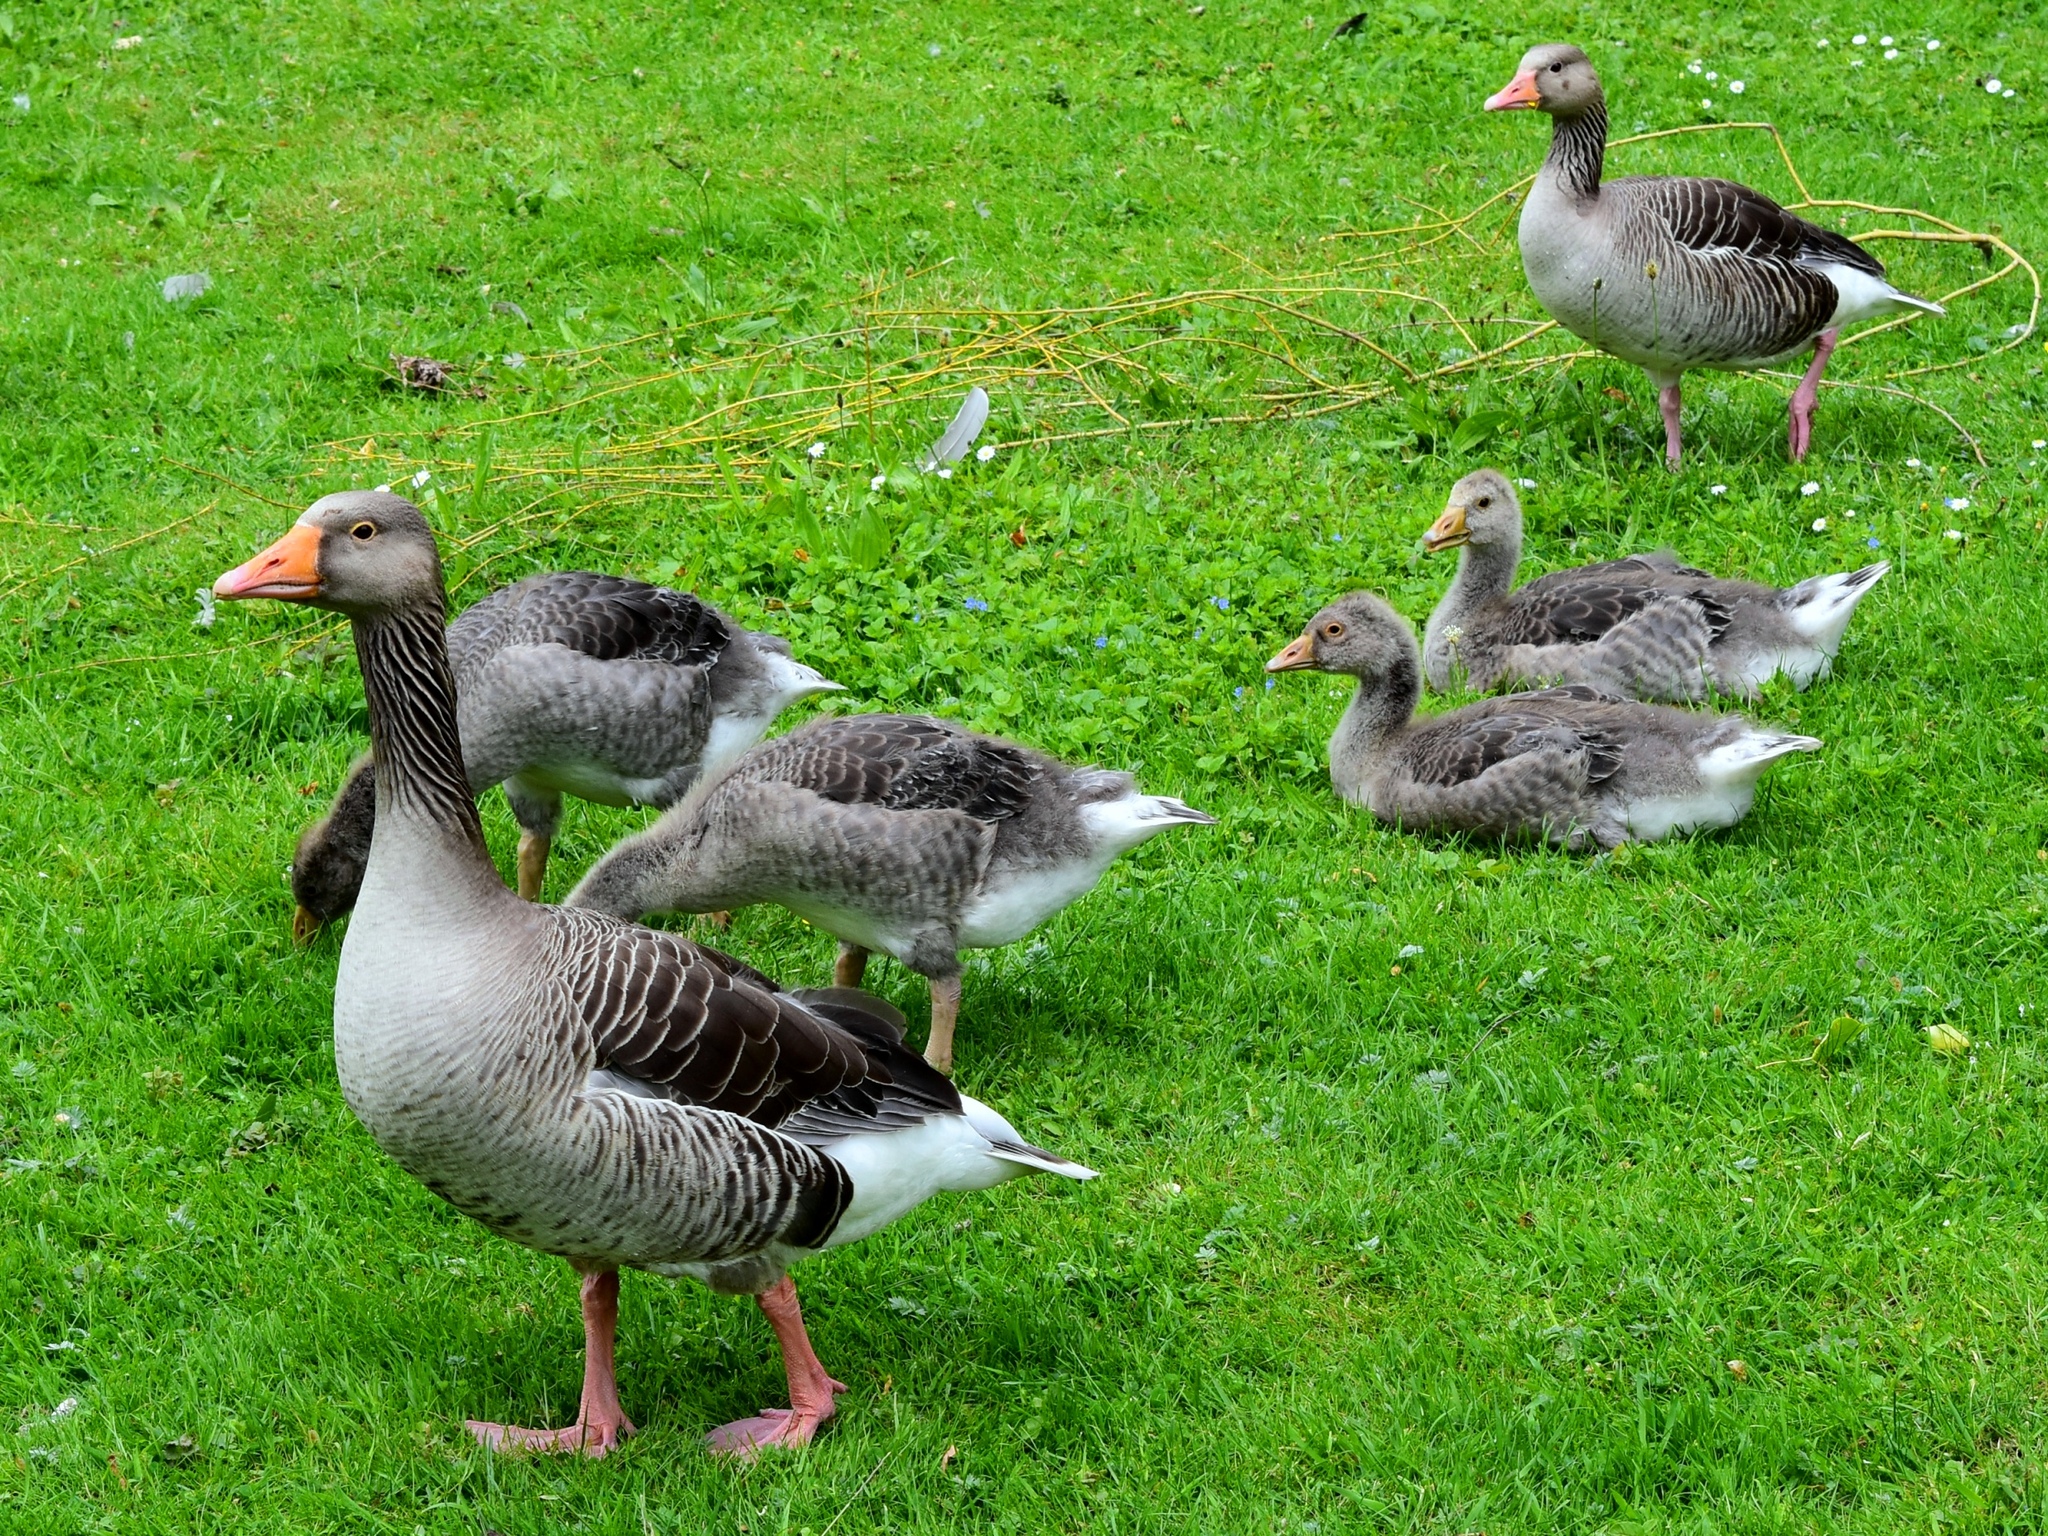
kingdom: Animalia
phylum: Chordata
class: Aves
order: Anseriformes
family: Anatidae
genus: Anser
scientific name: Anser anser
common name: Greylag goose
